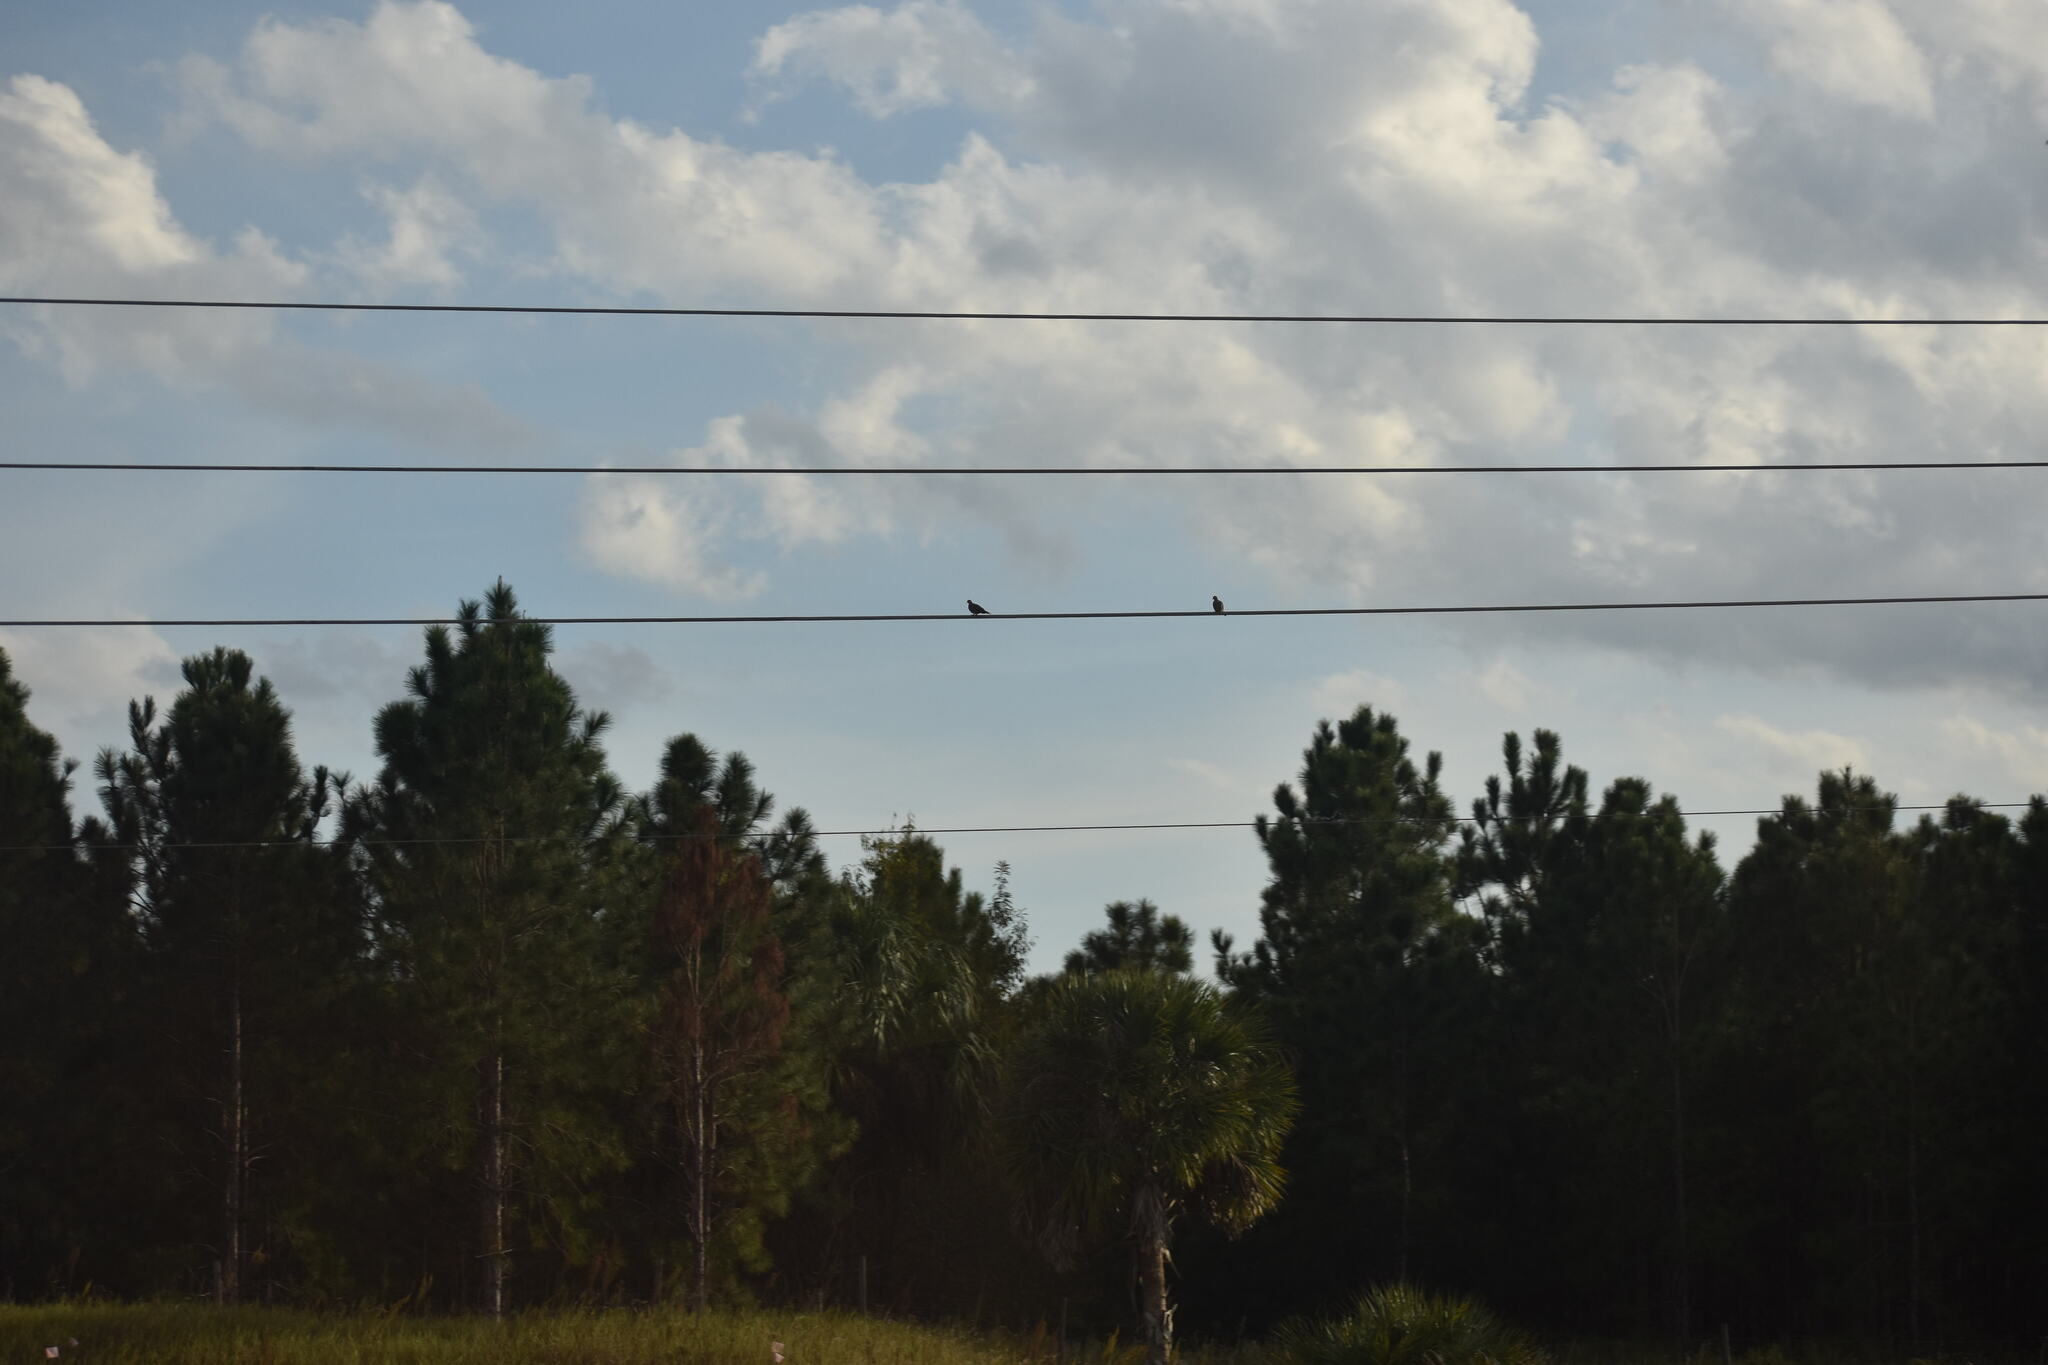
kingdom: Animalia
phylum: Chordata
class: Aves
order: Columbiformes
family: Columbidae
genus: Zenaida
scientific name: Zenaida macroura
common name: Mourning dove
